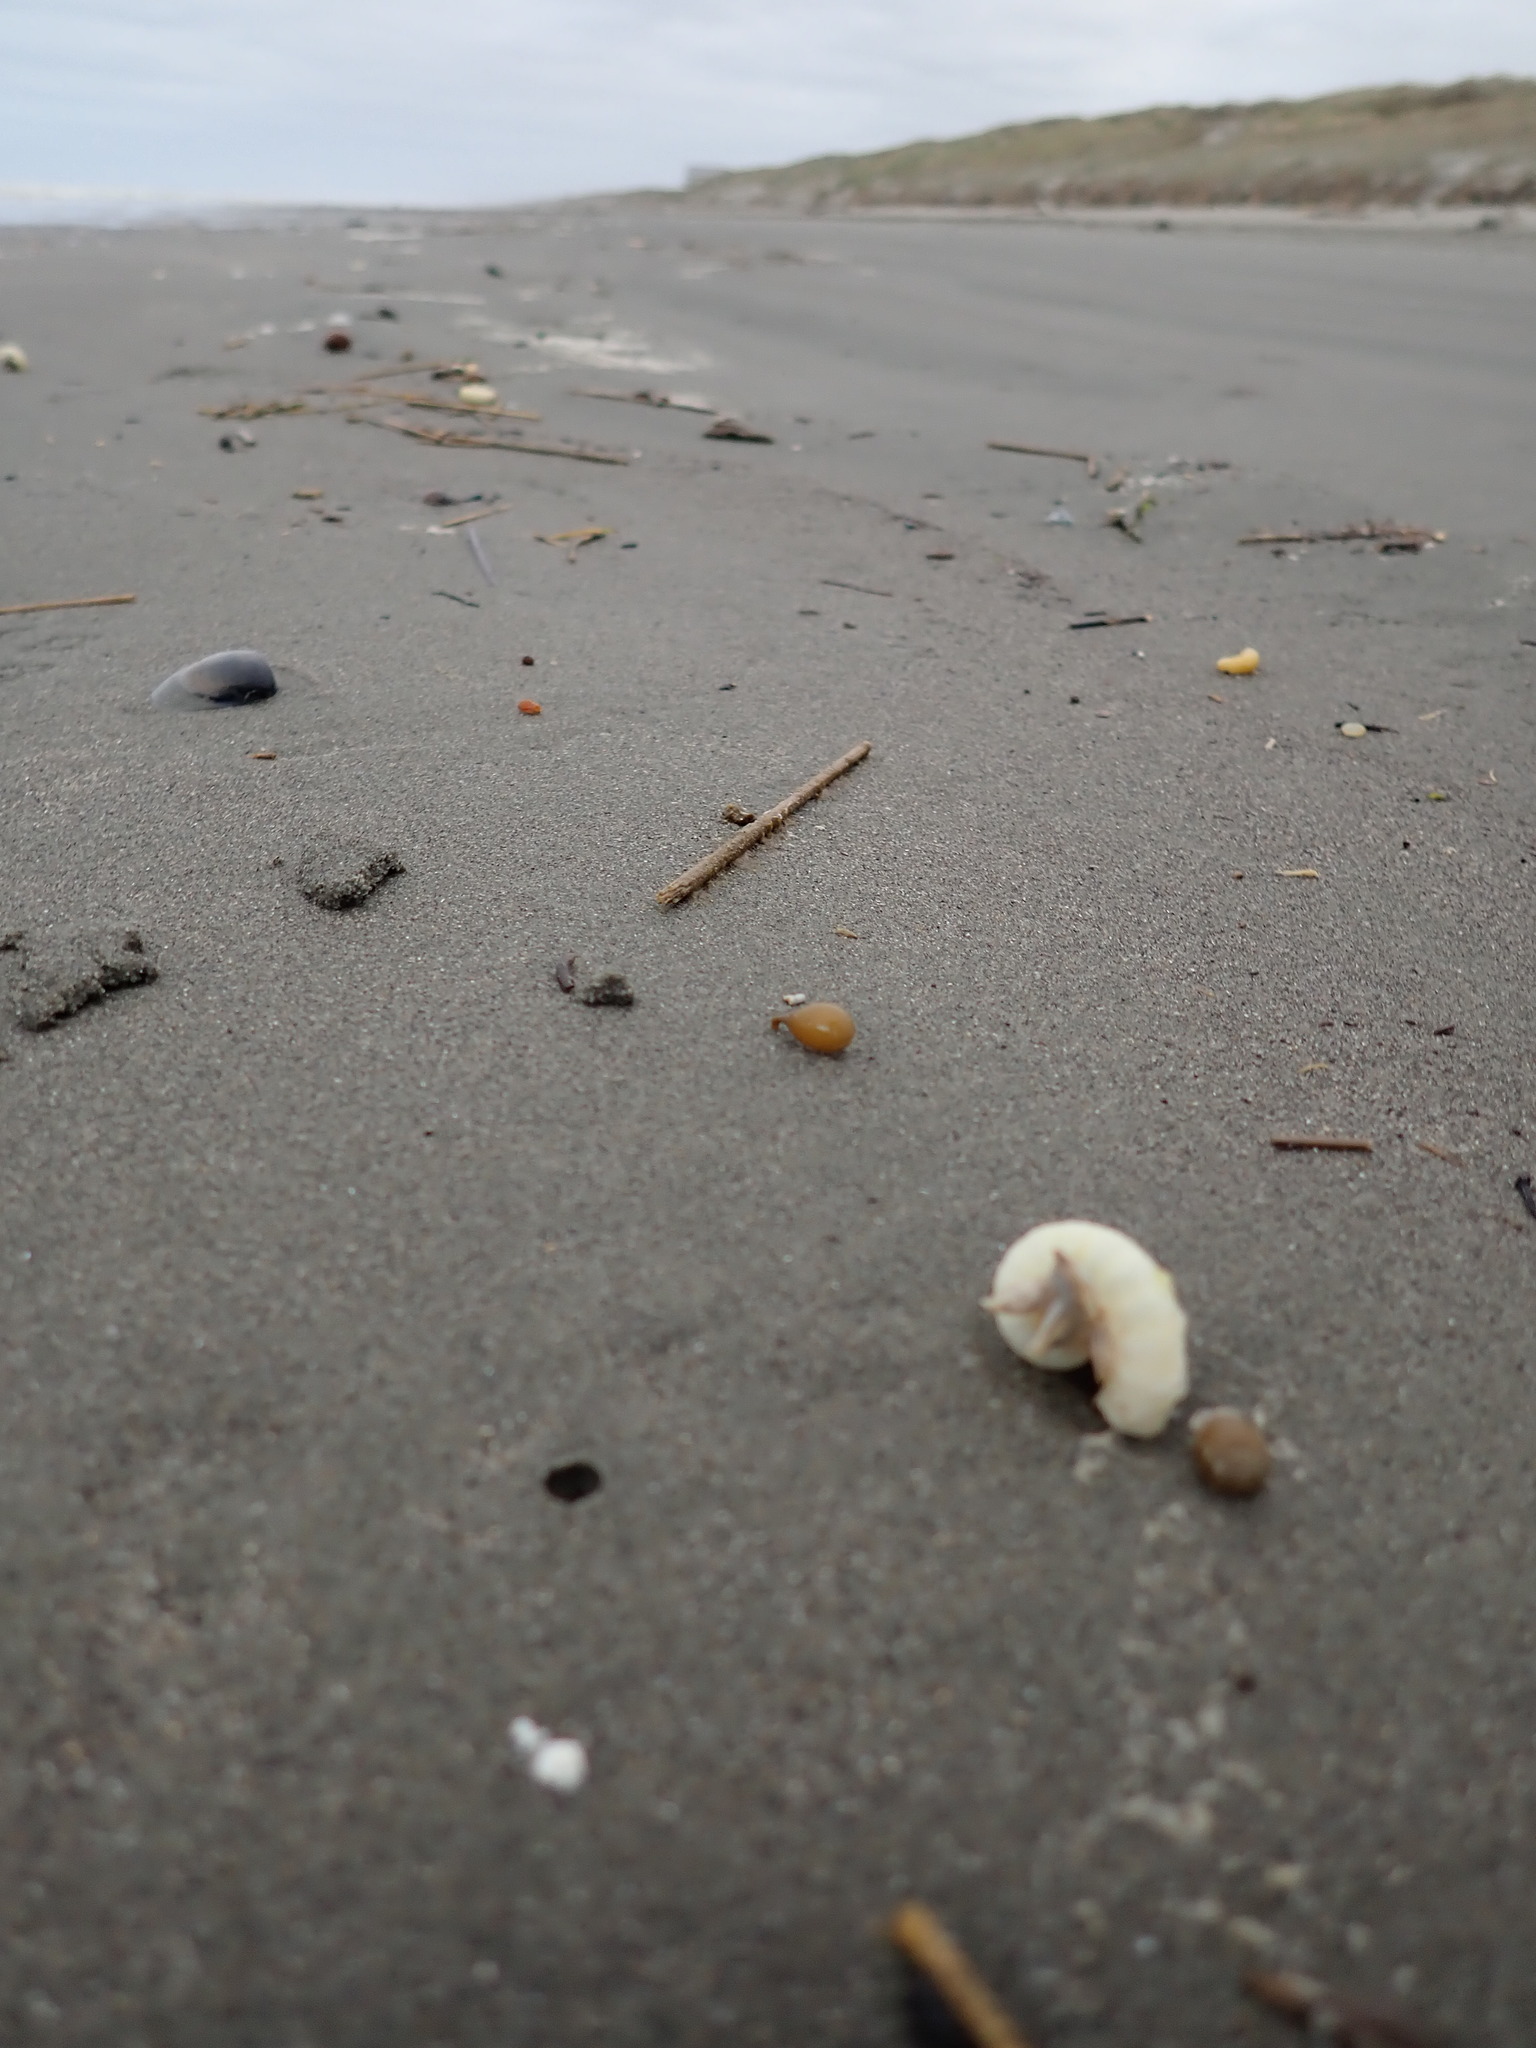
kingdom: Animalia
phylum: Arthropoda
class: Maxillopoda
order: Pedunculata
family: Lepadidae
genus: Lepas
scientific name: Lepas pectinata
